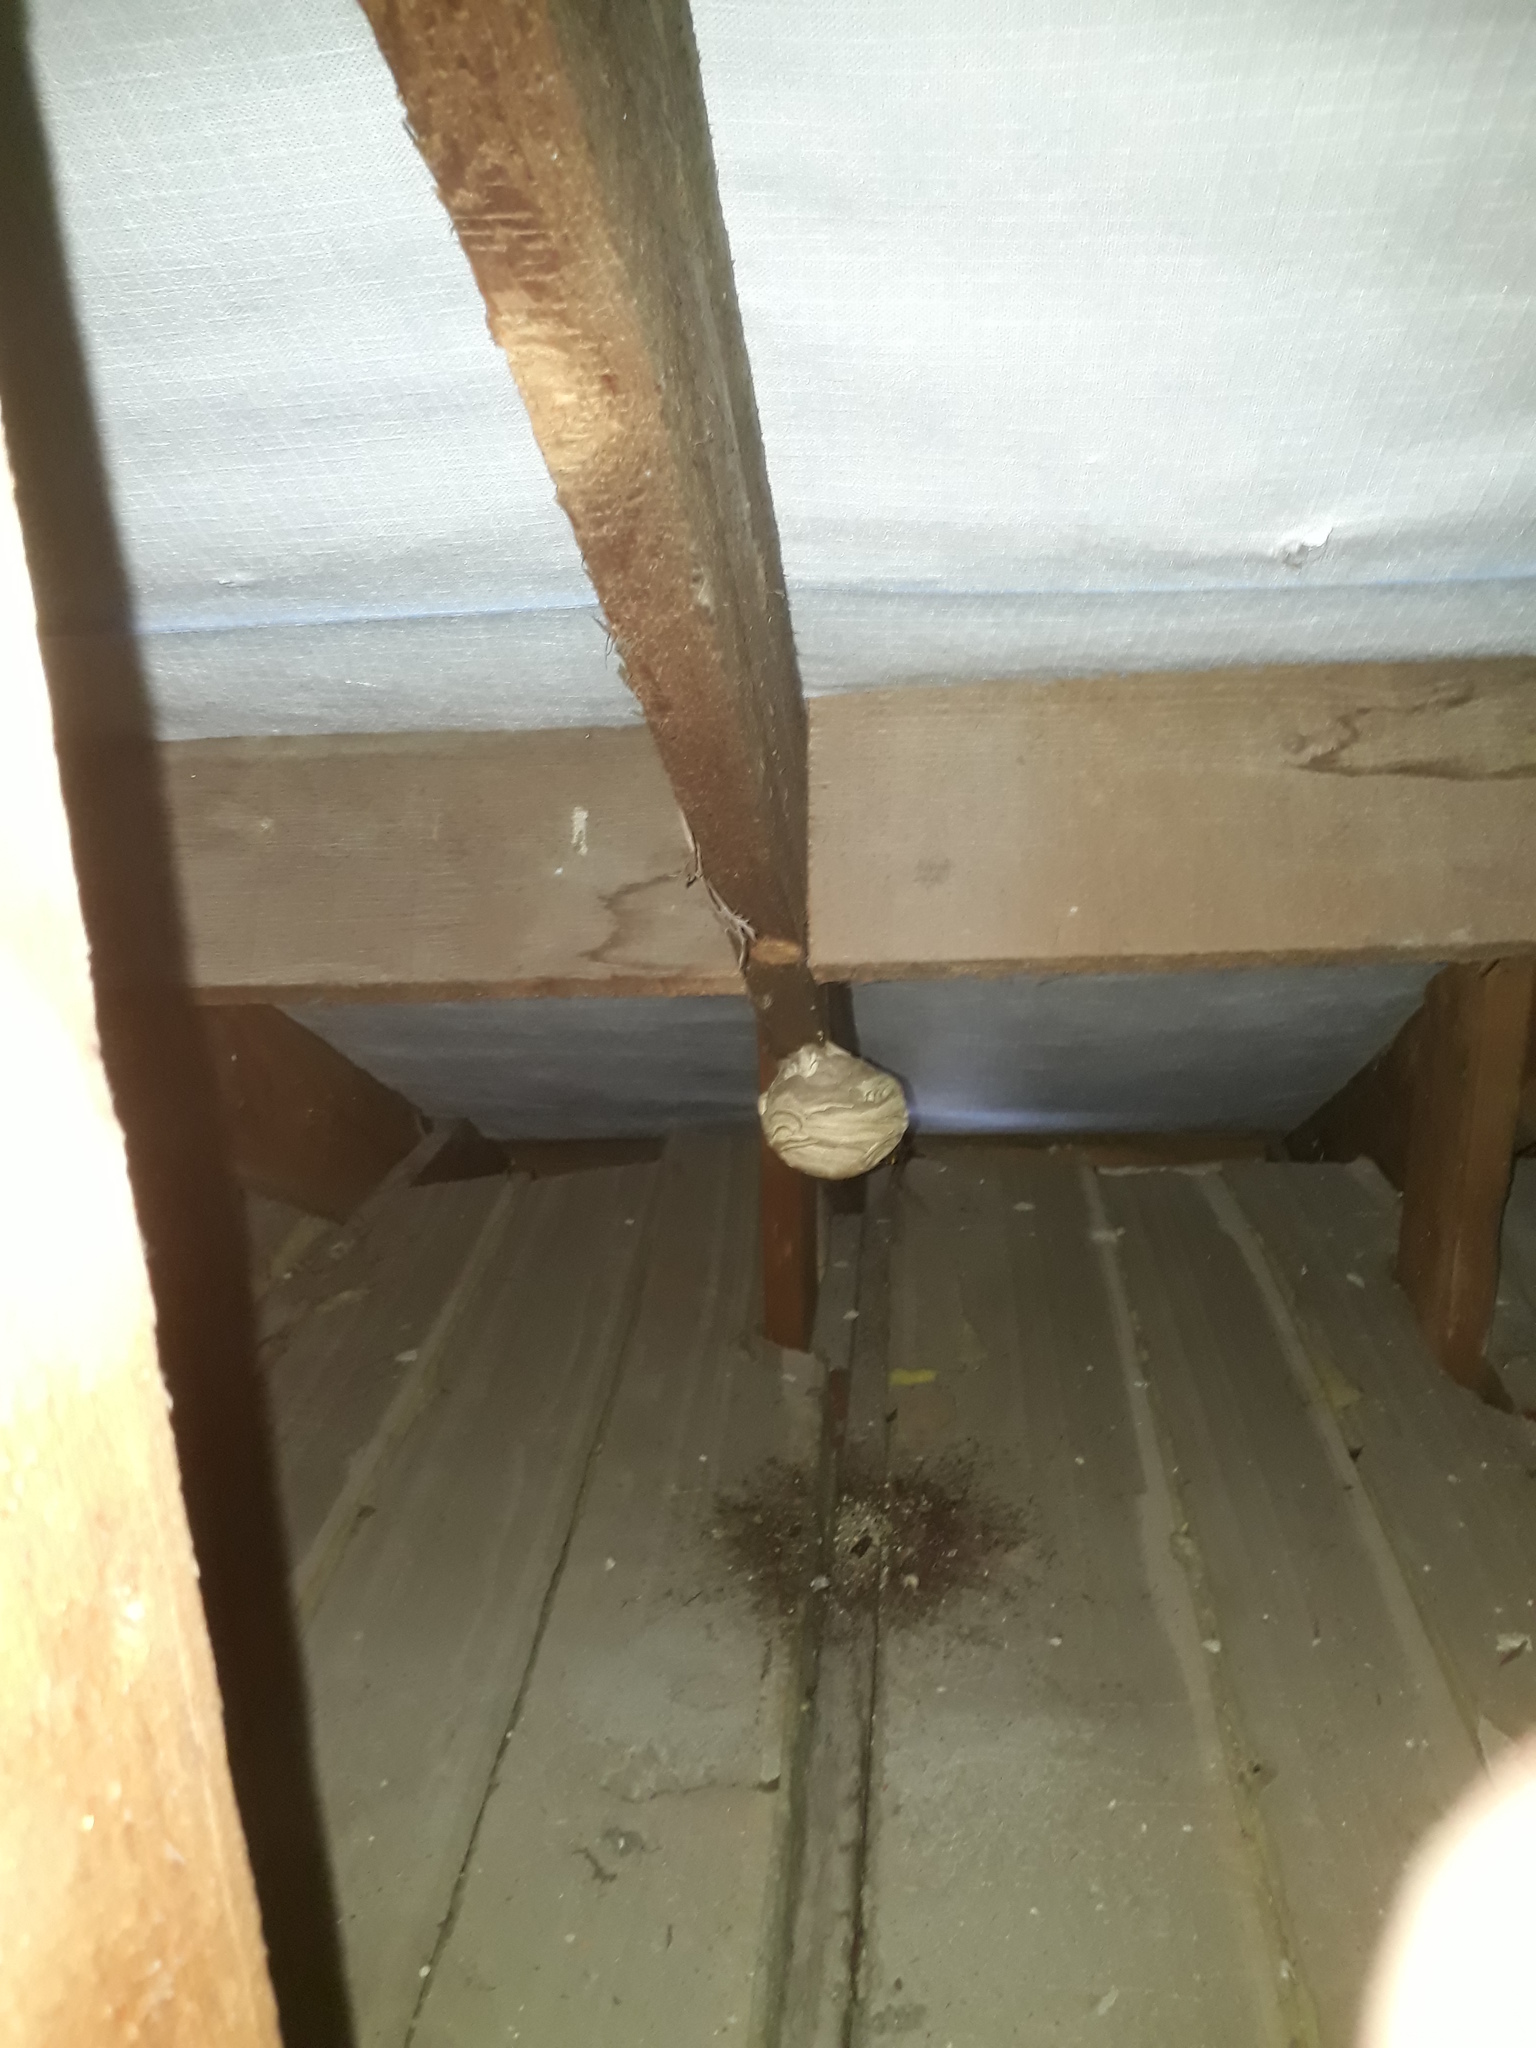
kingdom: Animalia
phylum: Arthropoda
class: Insecta
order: Hymenoptera
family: Vespidae
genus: Vespa
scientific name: Vespa velutina
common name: Asian hornet
